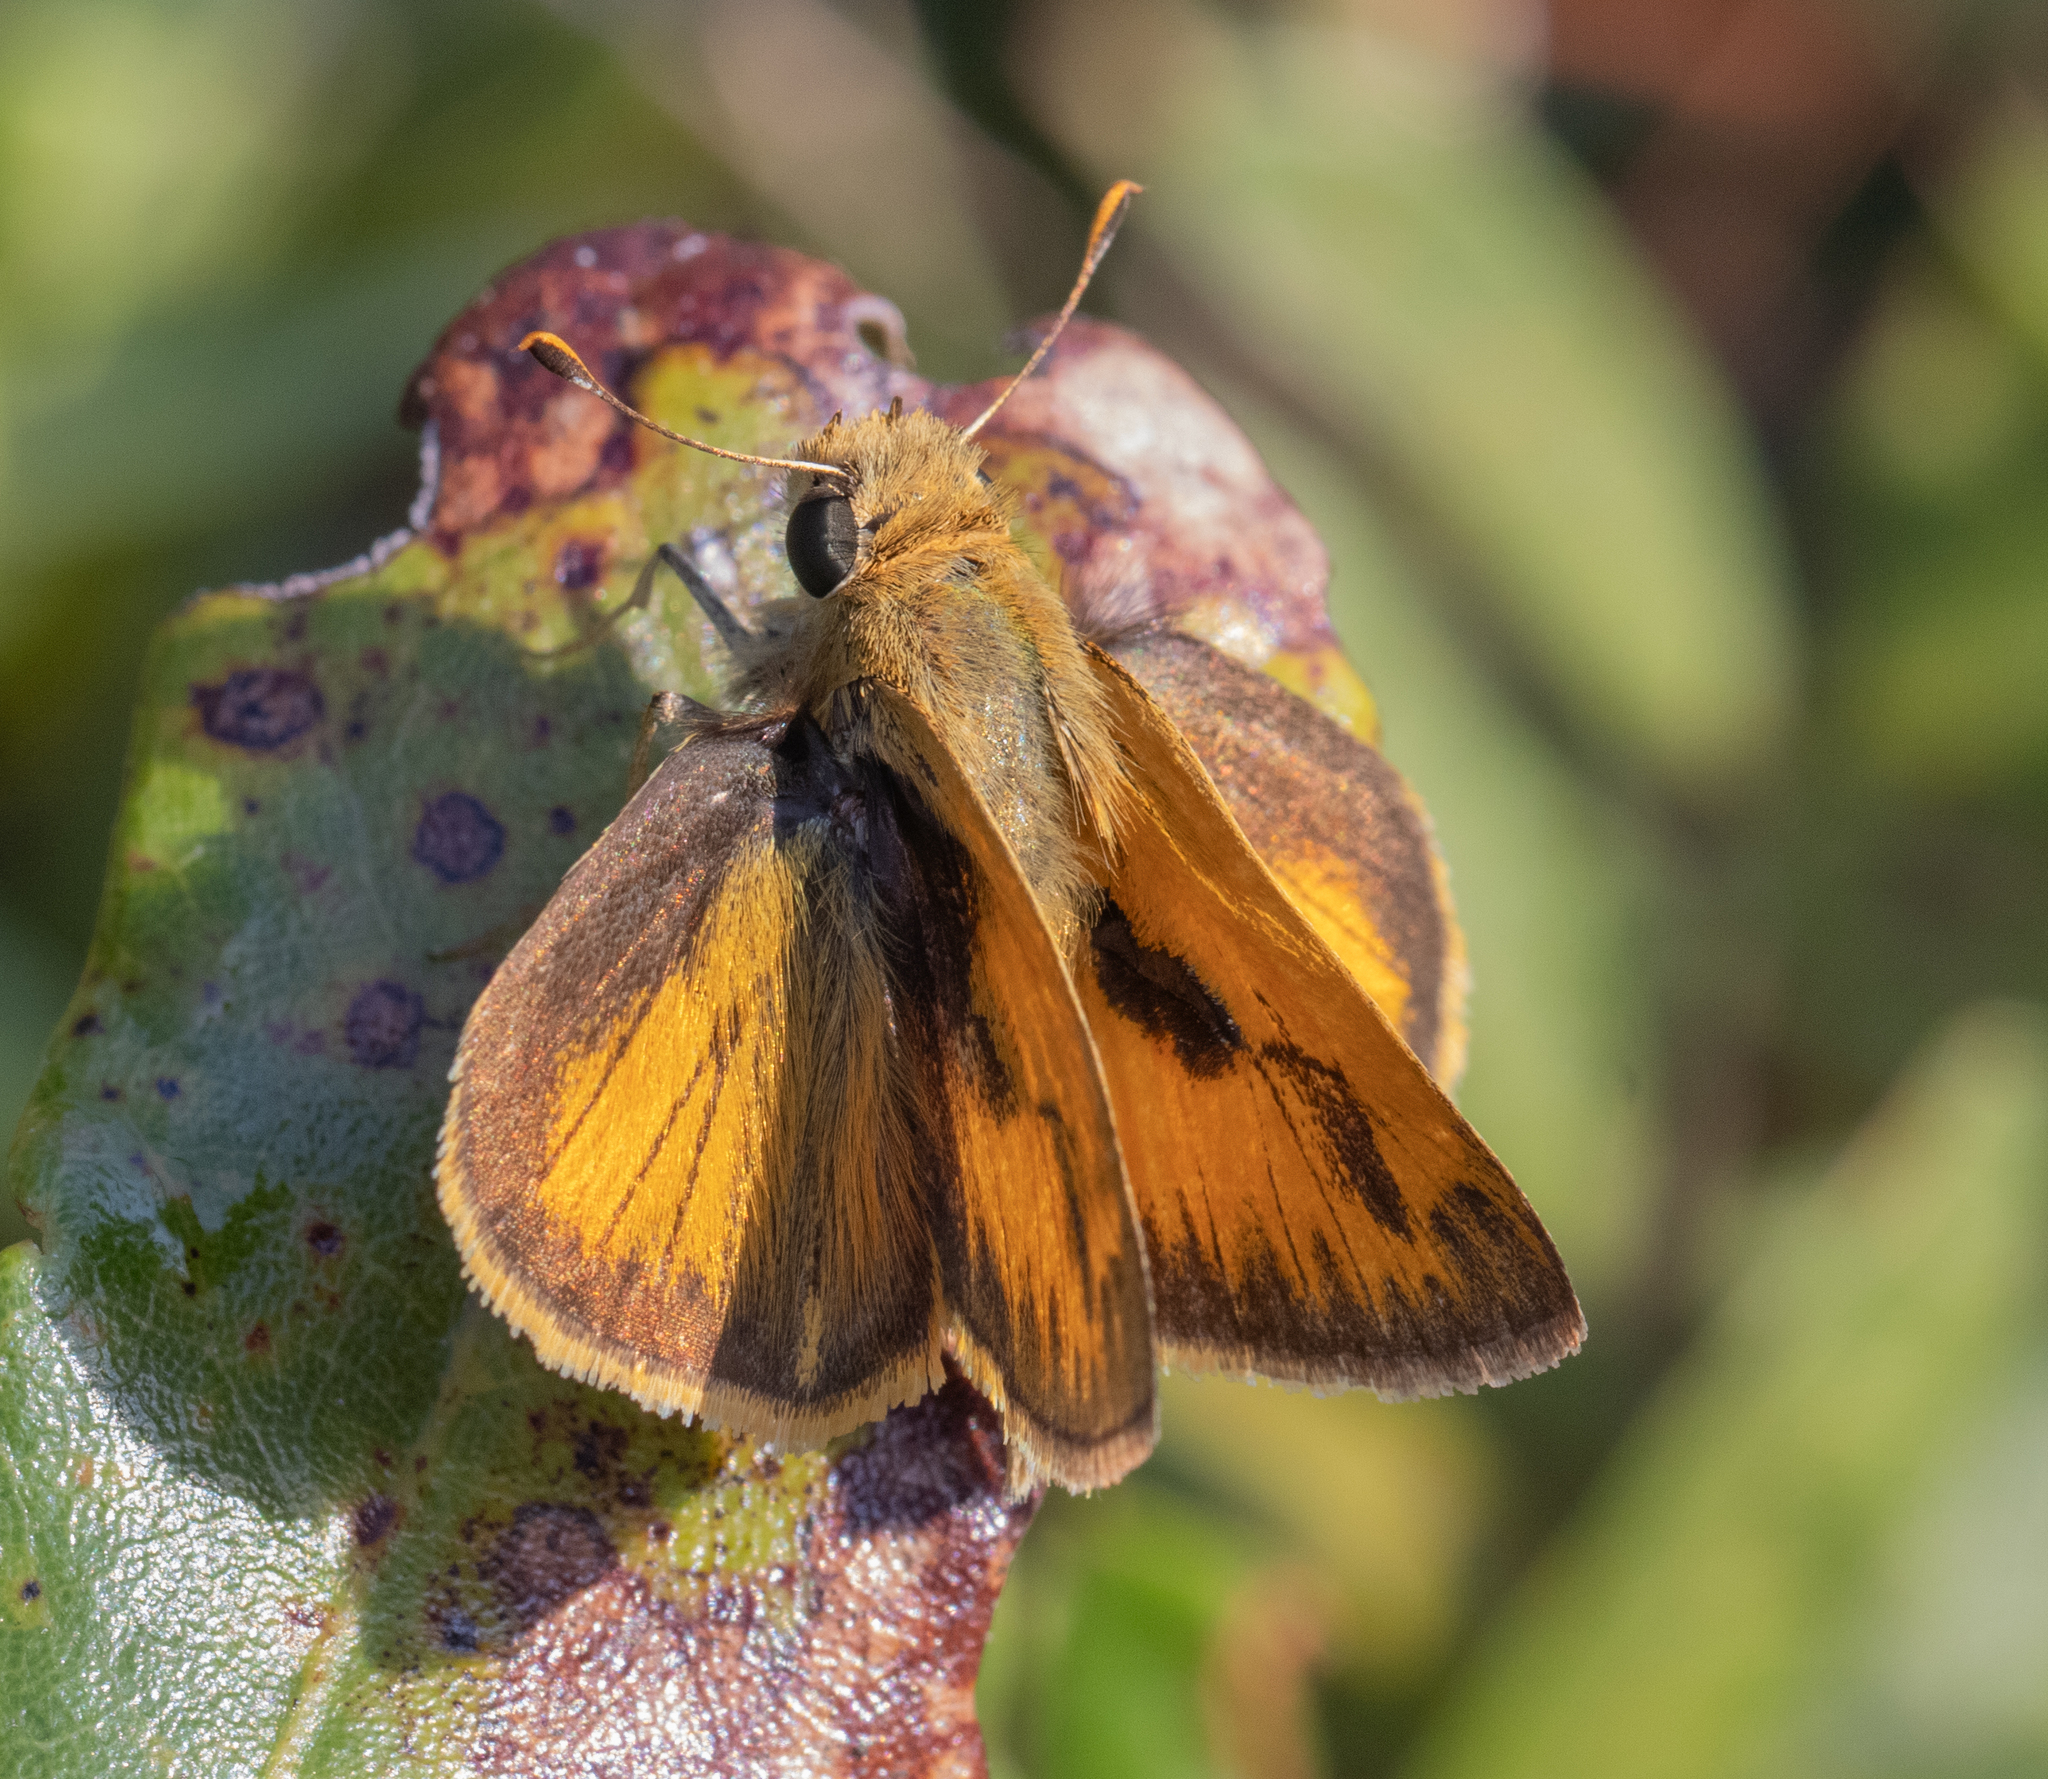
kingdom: Animalia
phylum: Arthropoda
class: Insecta
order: Lepidoptera
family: Hesperiidae
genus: Polites
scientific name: Polites vibex
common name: Whirlabout
